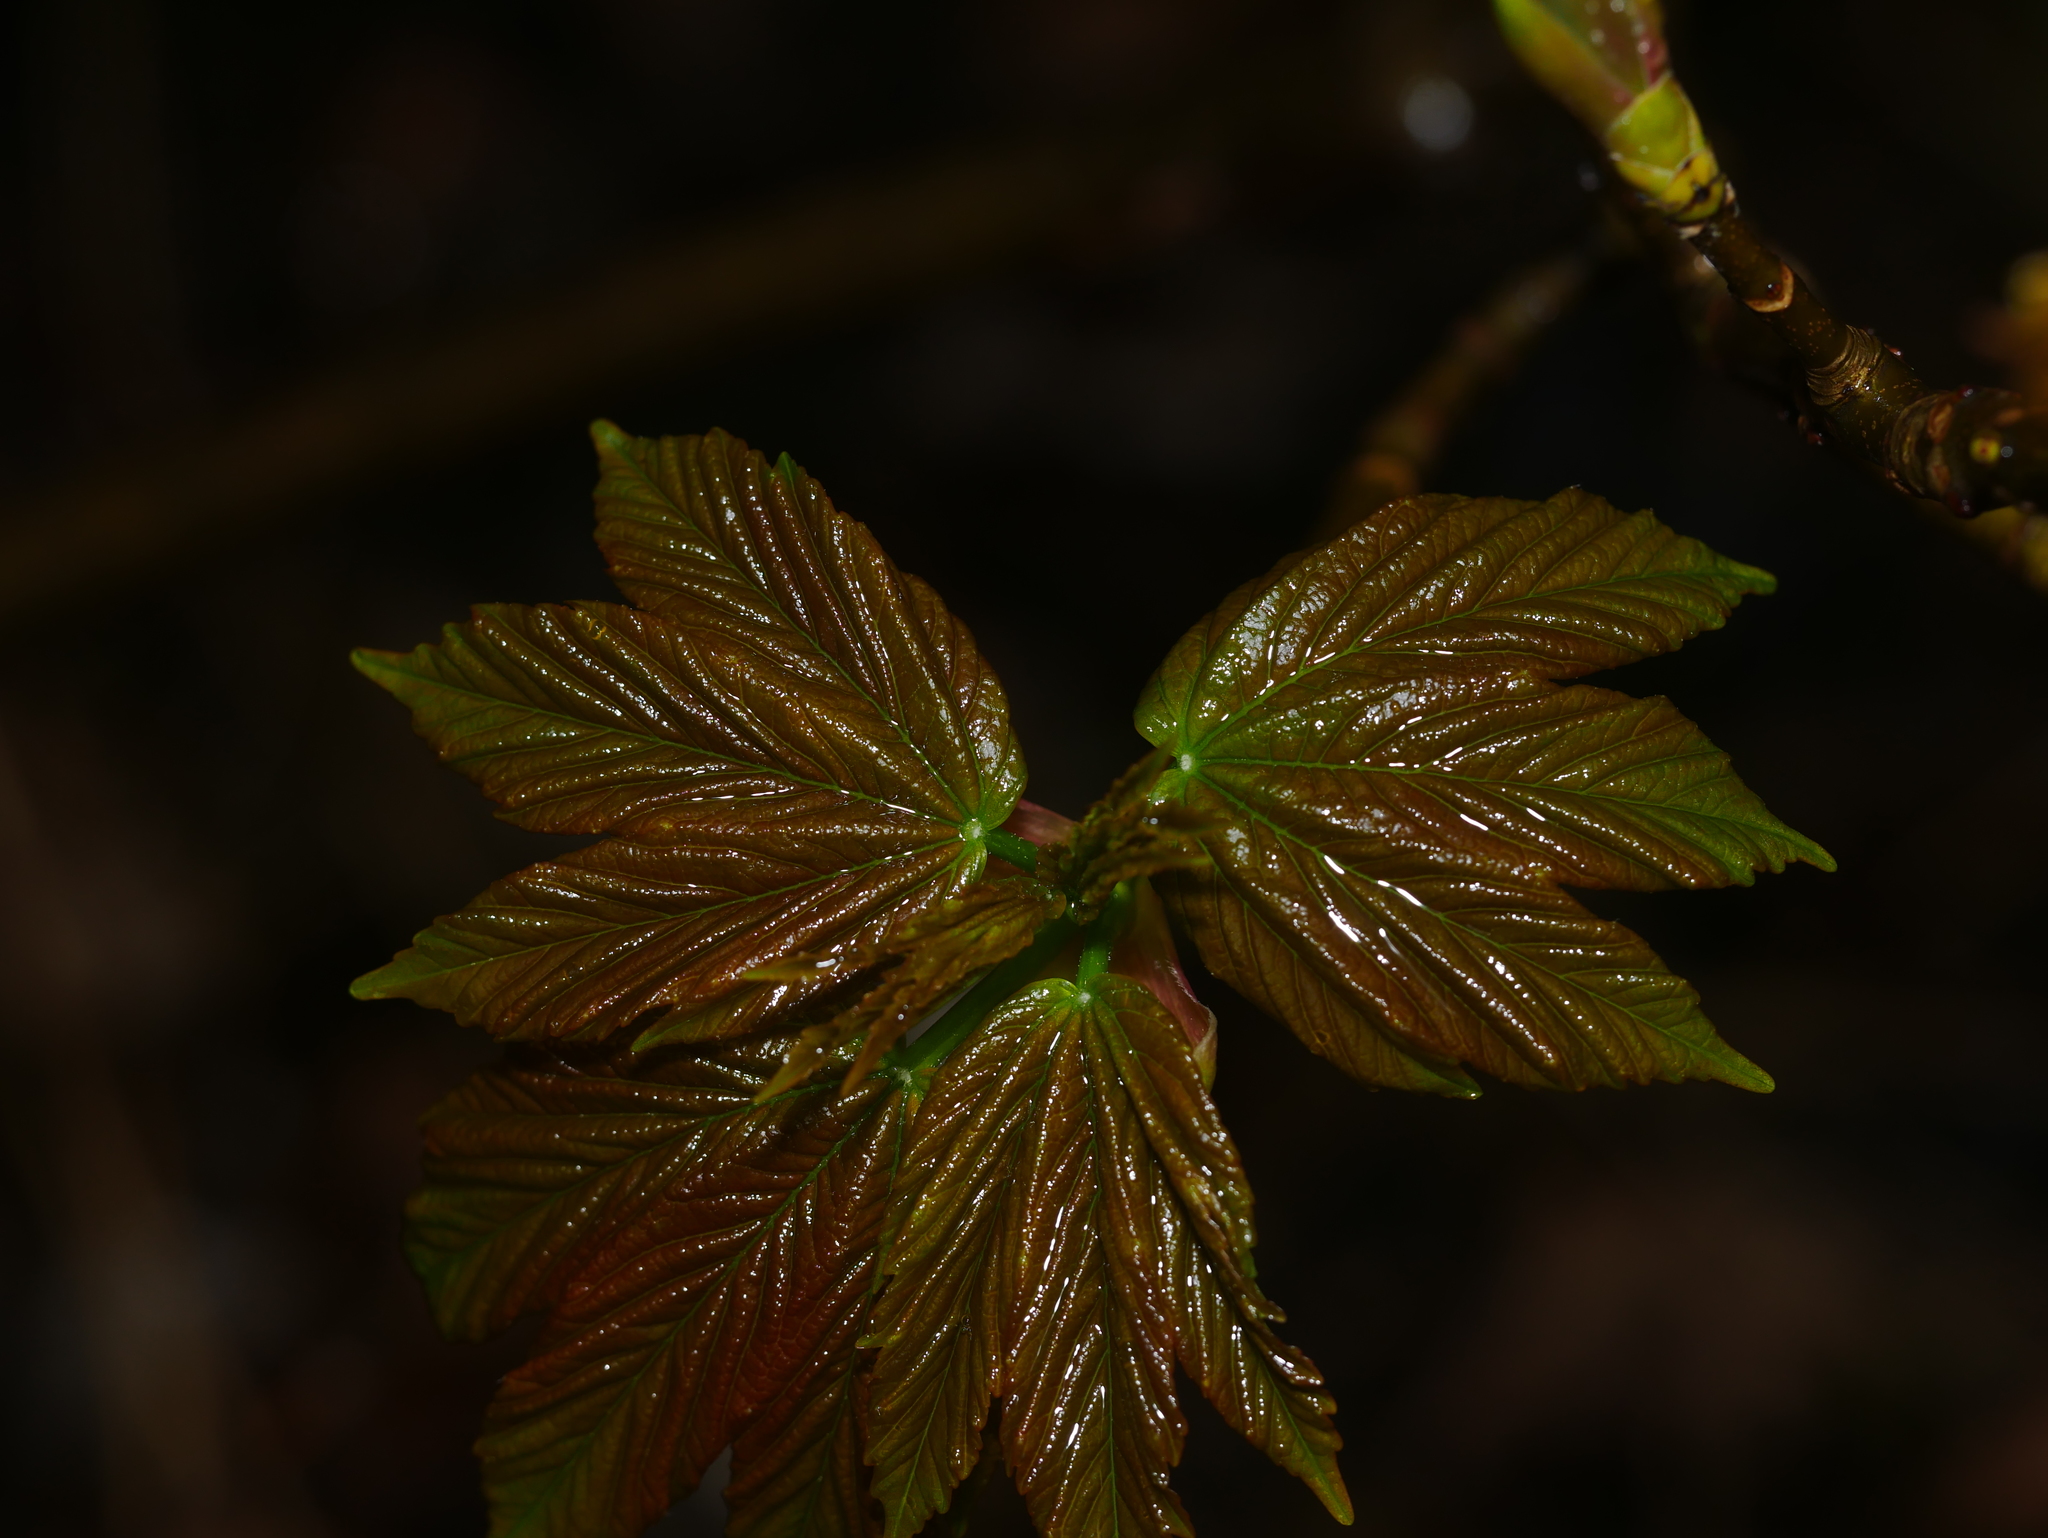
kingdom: Plantae
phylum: Tracheophyta
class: Magnoliopsida
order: Sapindales
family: Sapindaceae
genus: Acer
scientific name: Acer pseudoplatanus
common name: Sycamore
